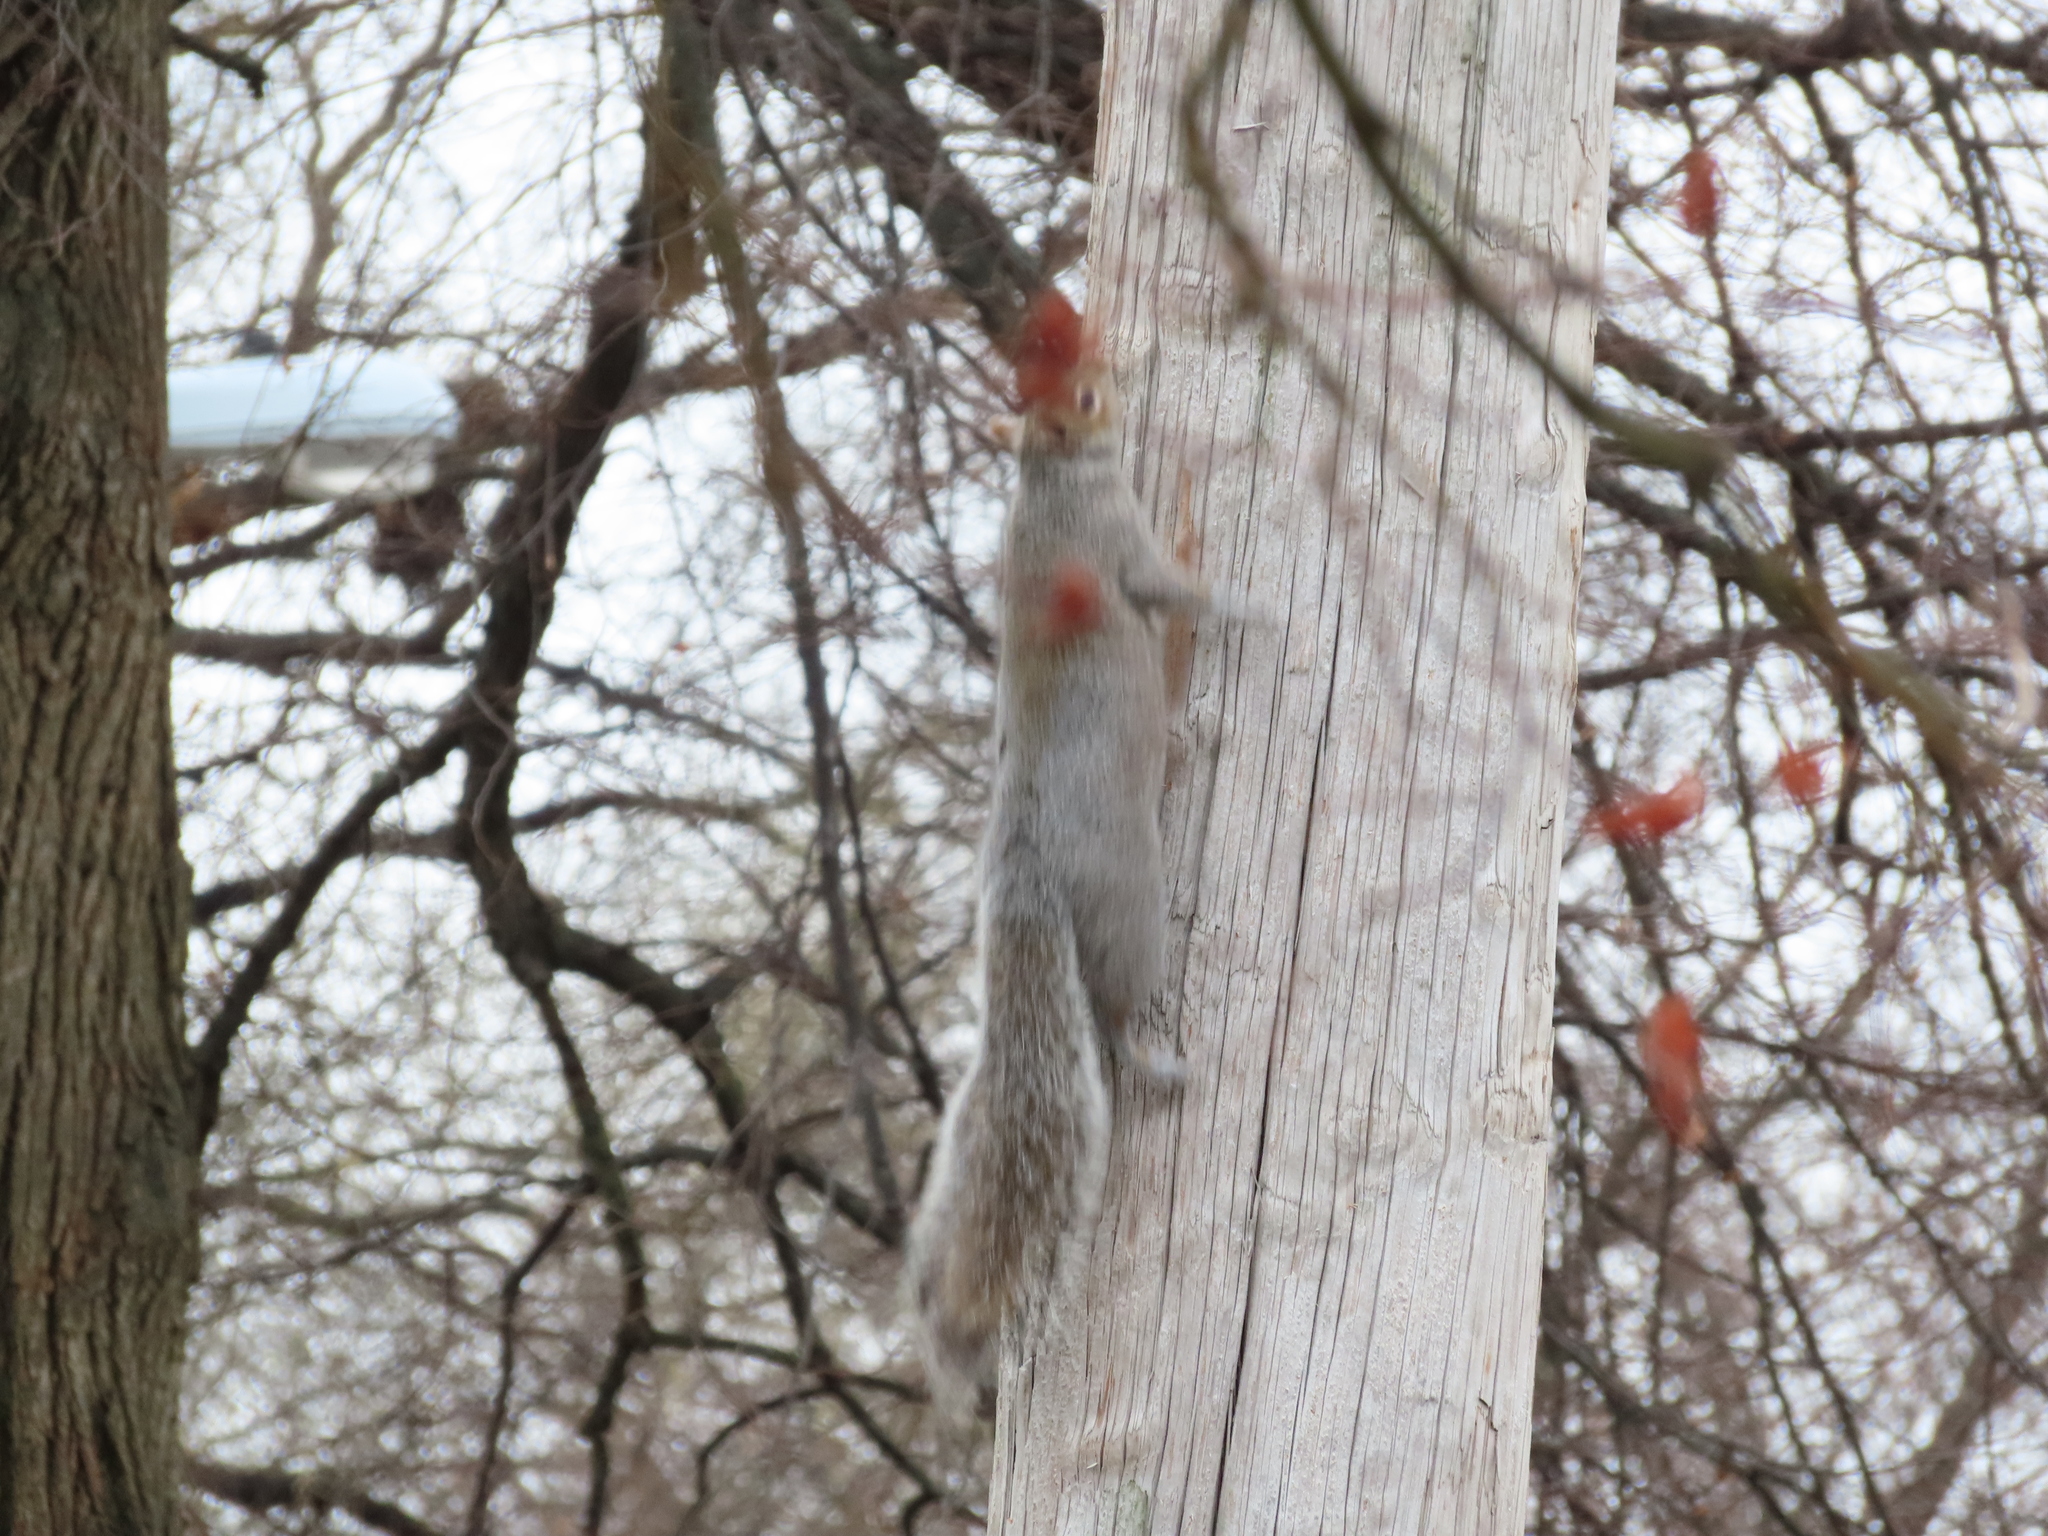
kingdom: Animalia
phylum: Chordata
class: Mammalia
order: Rodentia
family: Sciuridae
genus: Sciurus
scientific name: Sciurus carolinensis
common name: Eastern gray squirrel
